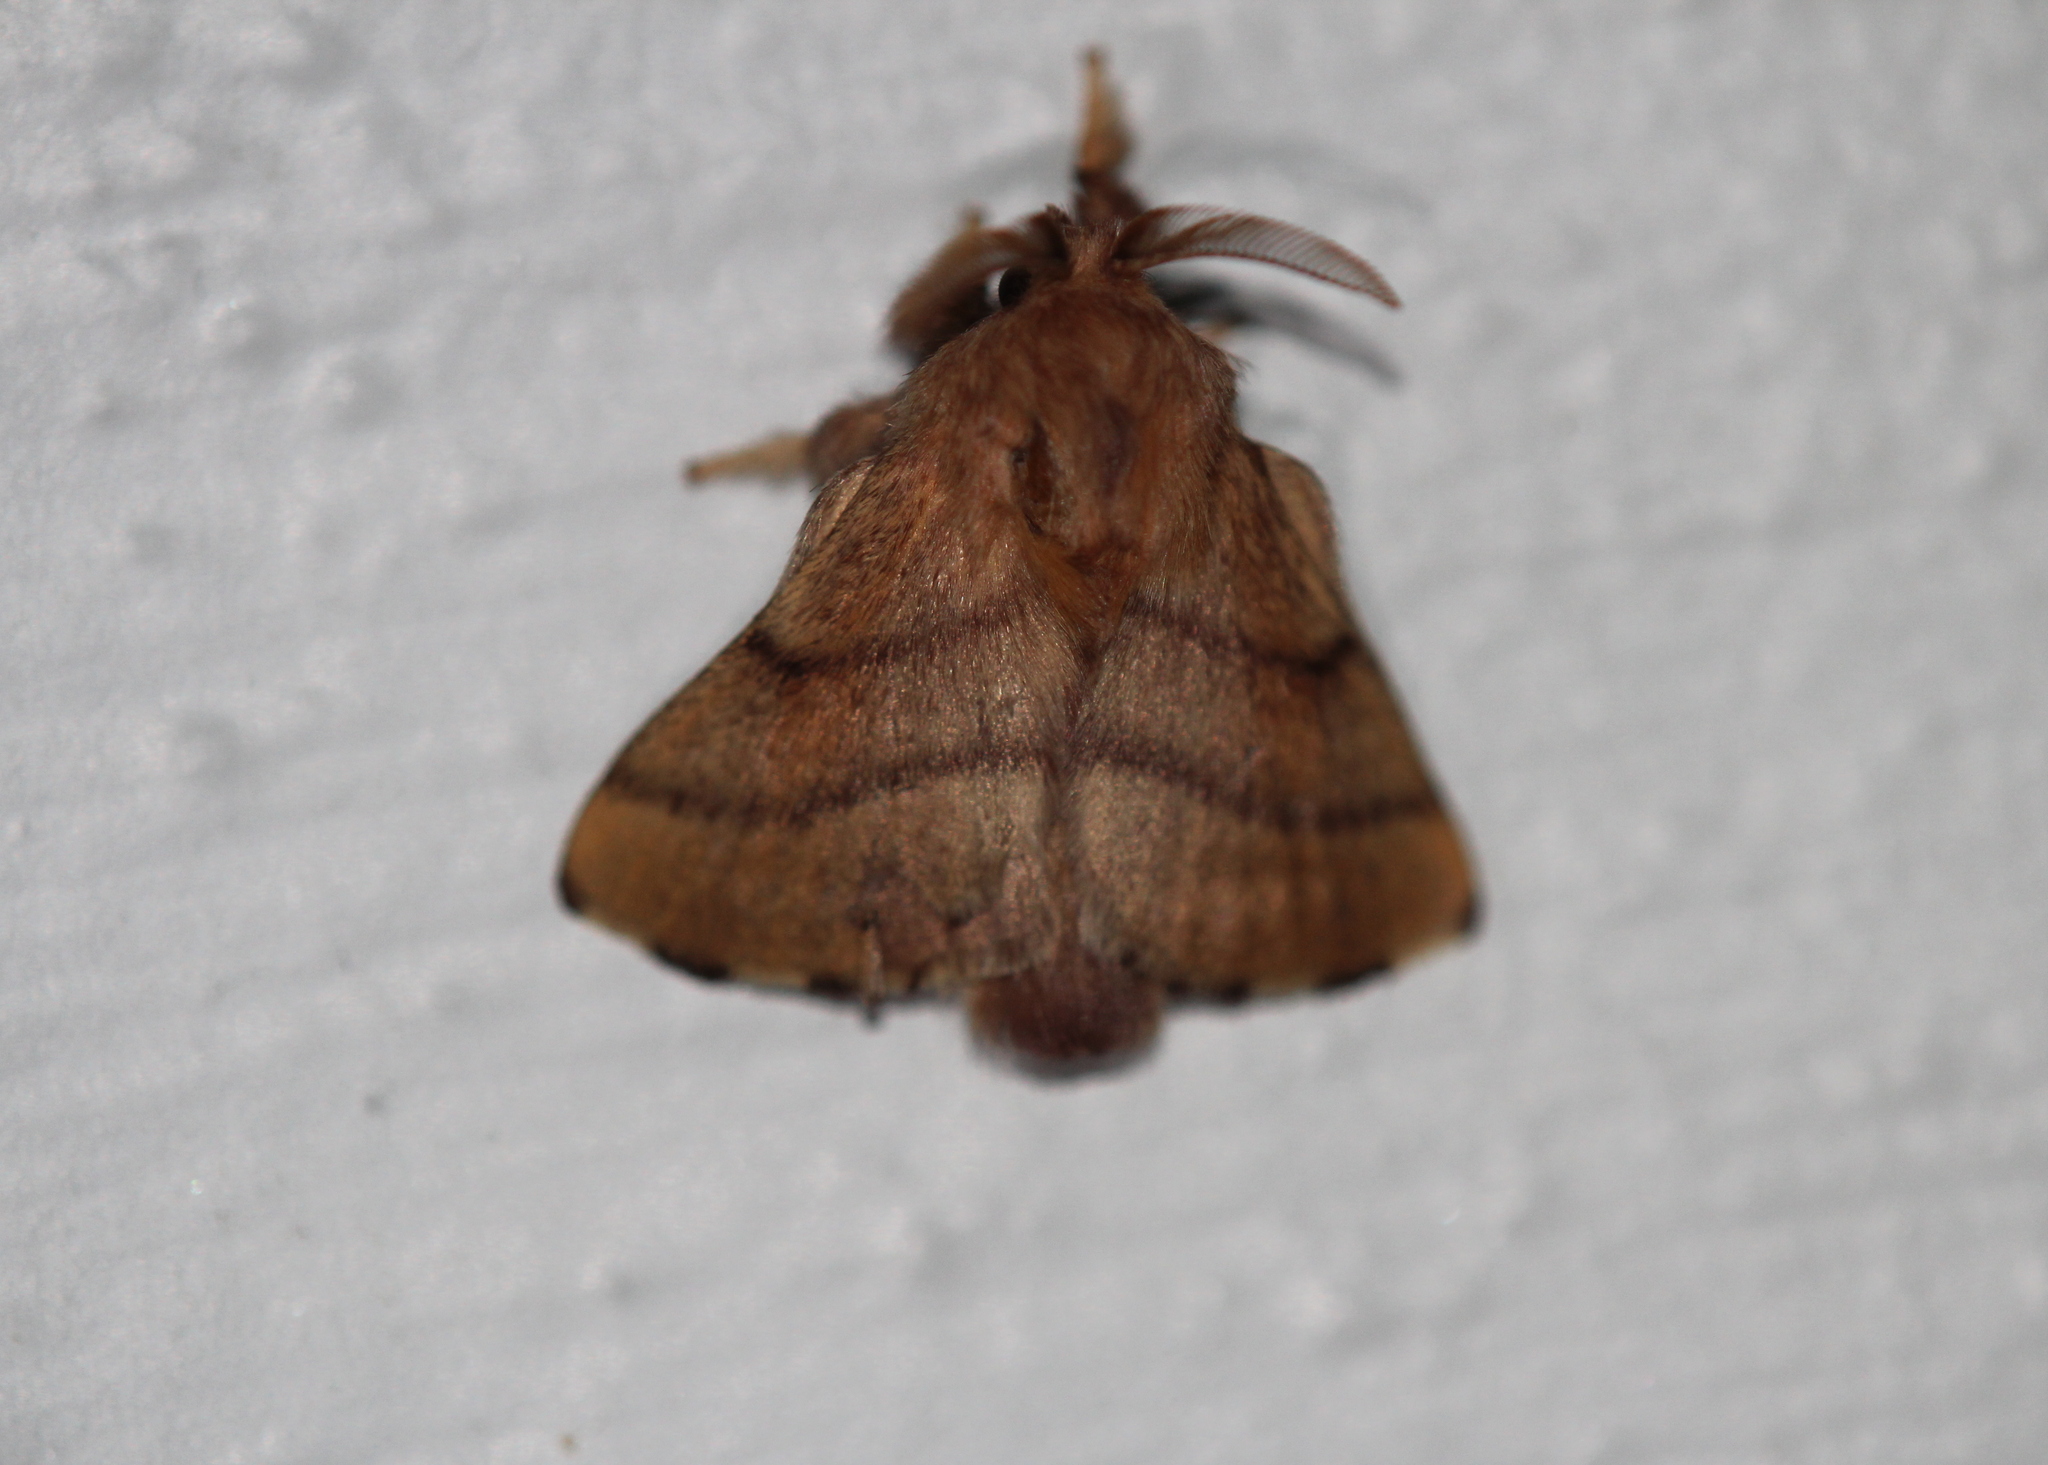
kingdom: Animalia
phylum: Arthropoda
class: Insecta
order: Lepidoptera
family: Lasiocampidae
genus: Malacosoma
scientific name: Malacosoma disstria
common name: Forest tent caterpillar
